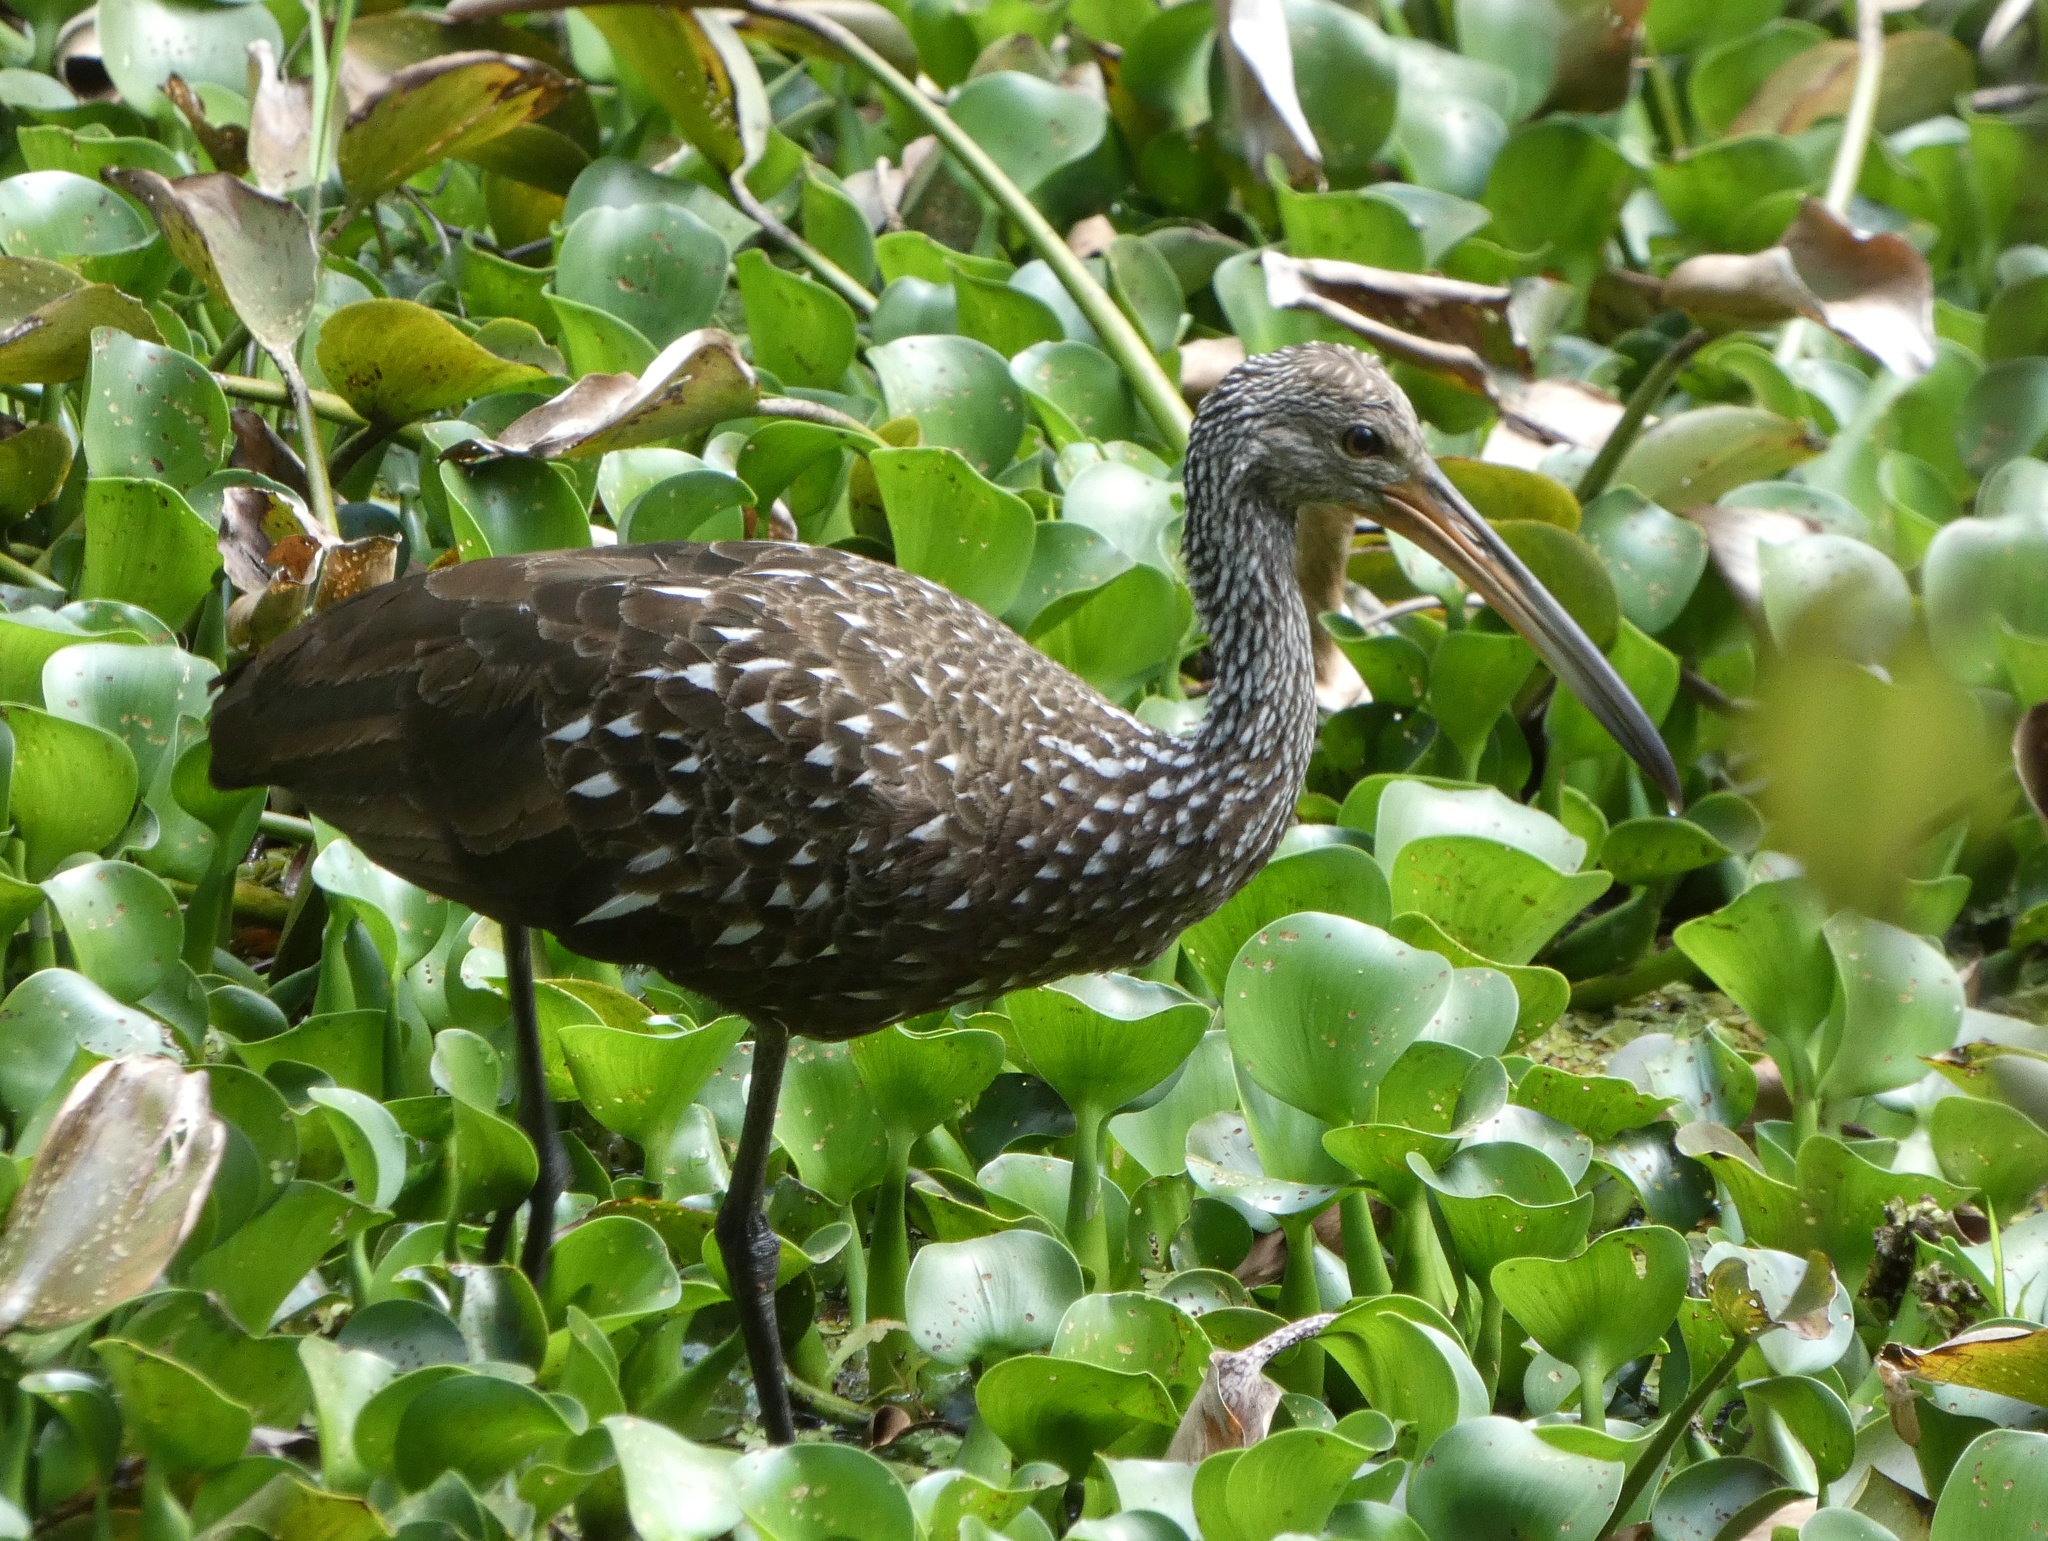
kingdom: Animalia
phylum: Chordata
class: Aves
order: Gruiformes
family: Aramidae
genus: Aramus
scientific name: Aramus guarauna
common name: Limpkin
